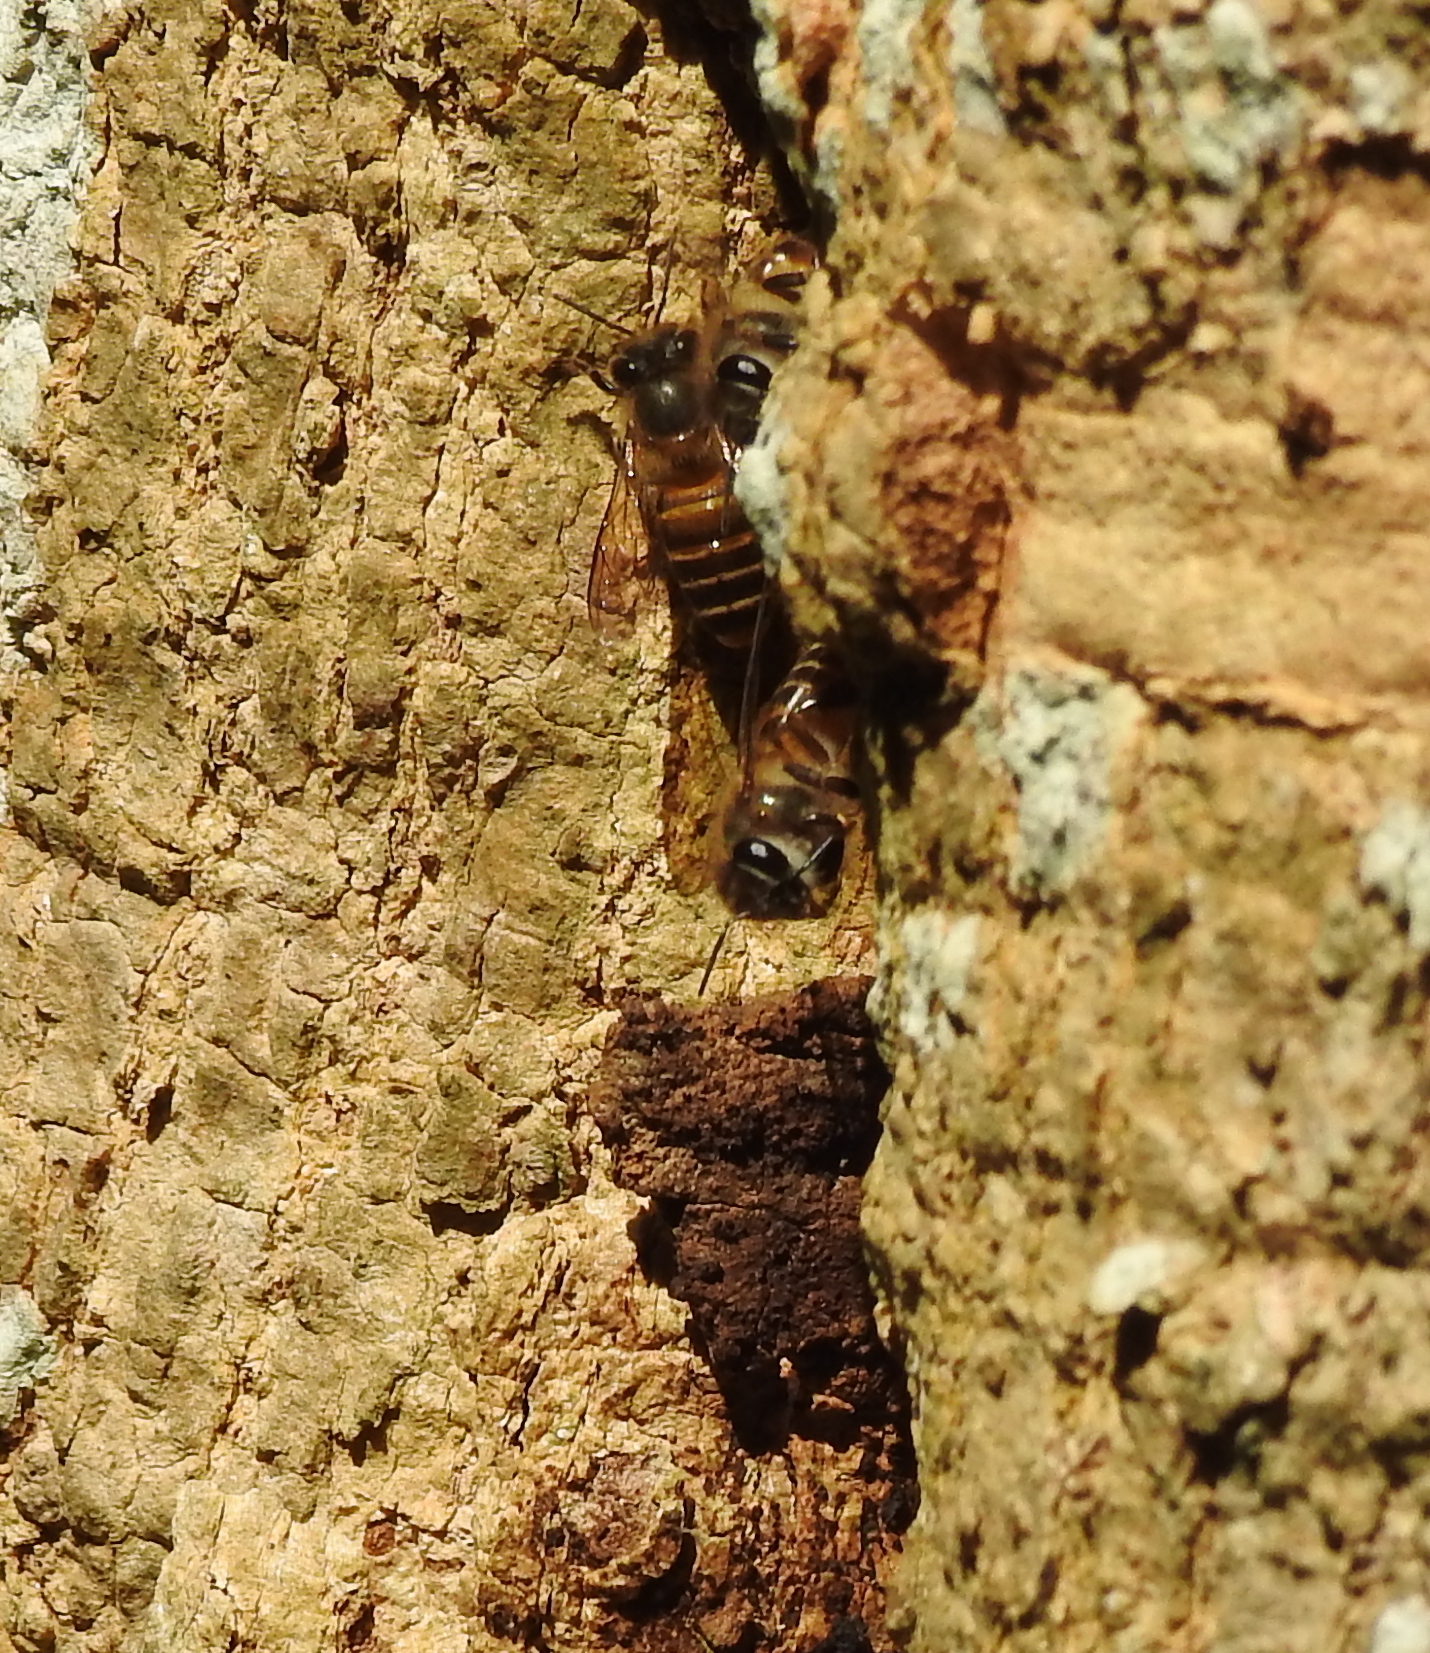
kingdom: Animalia
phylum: Arthropoda
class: Insecta
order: Hymenoptera
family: Apidae
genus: Apis
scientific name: Apis cerana
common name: Honey bee
